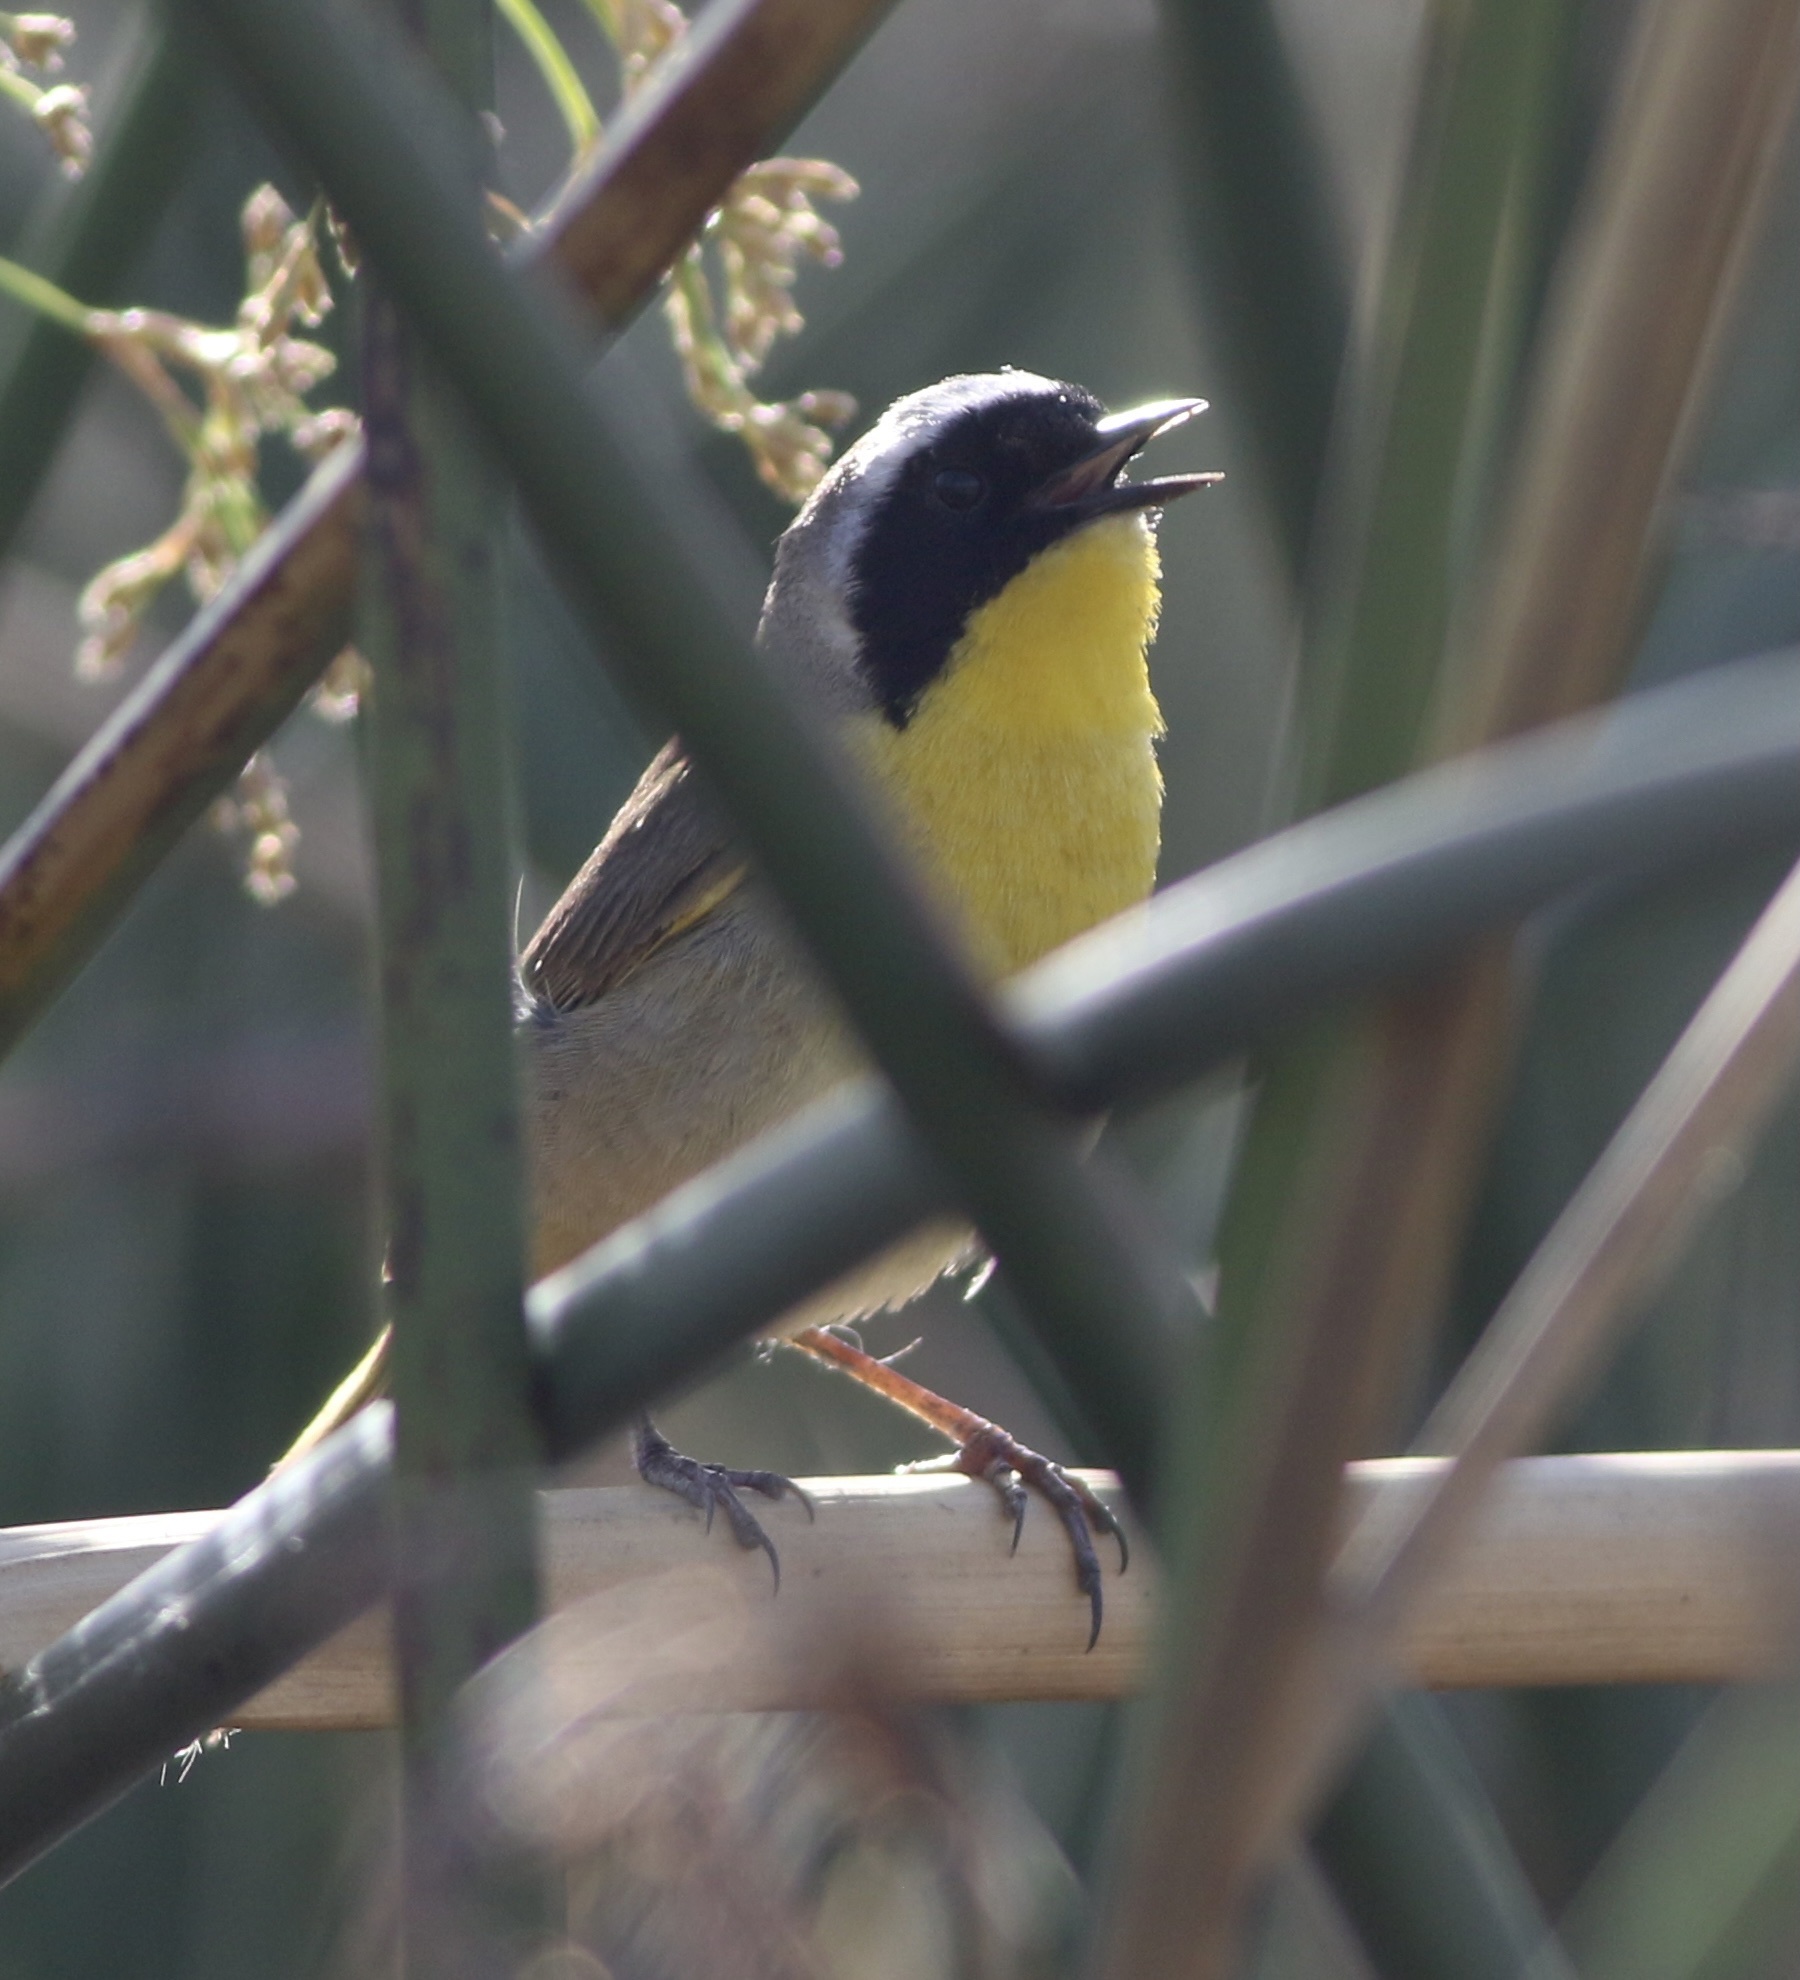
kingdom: Animalia
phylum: Chordata
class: Aves
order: Passeriformes
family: Parulidae
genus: Geothlypis
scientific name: Geothlypis trichas
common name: Common yellowthroat
